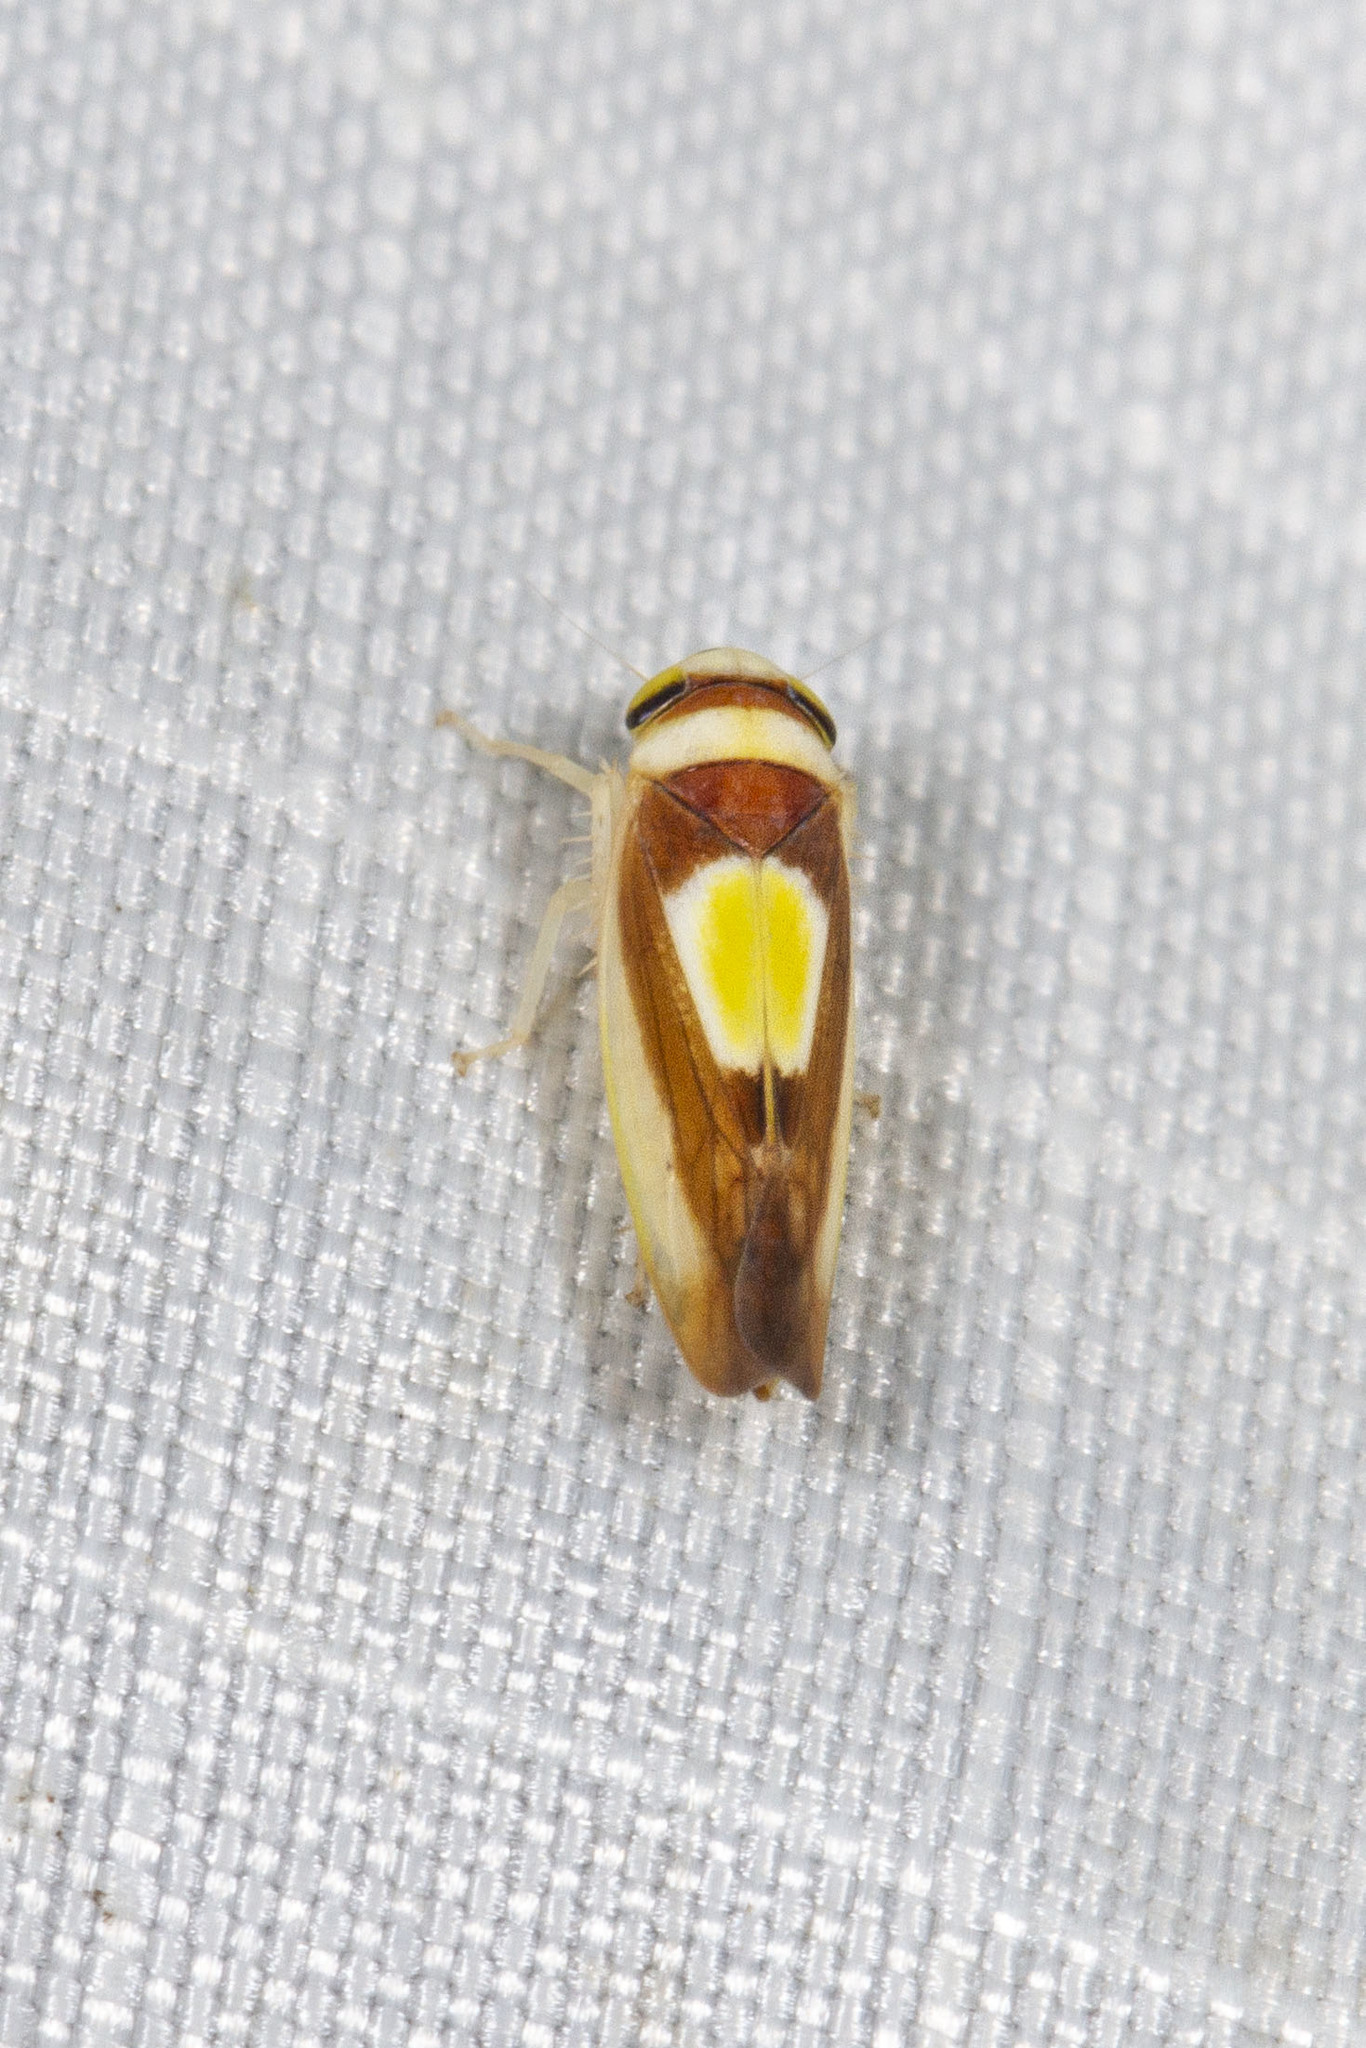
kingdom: Animalia
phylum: Arthropoda
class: Insecta
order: Hemiptera
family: Cicadellidae
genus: Colladonus
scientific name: Colladonus clitellarius
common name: The saddleback leafhopper
